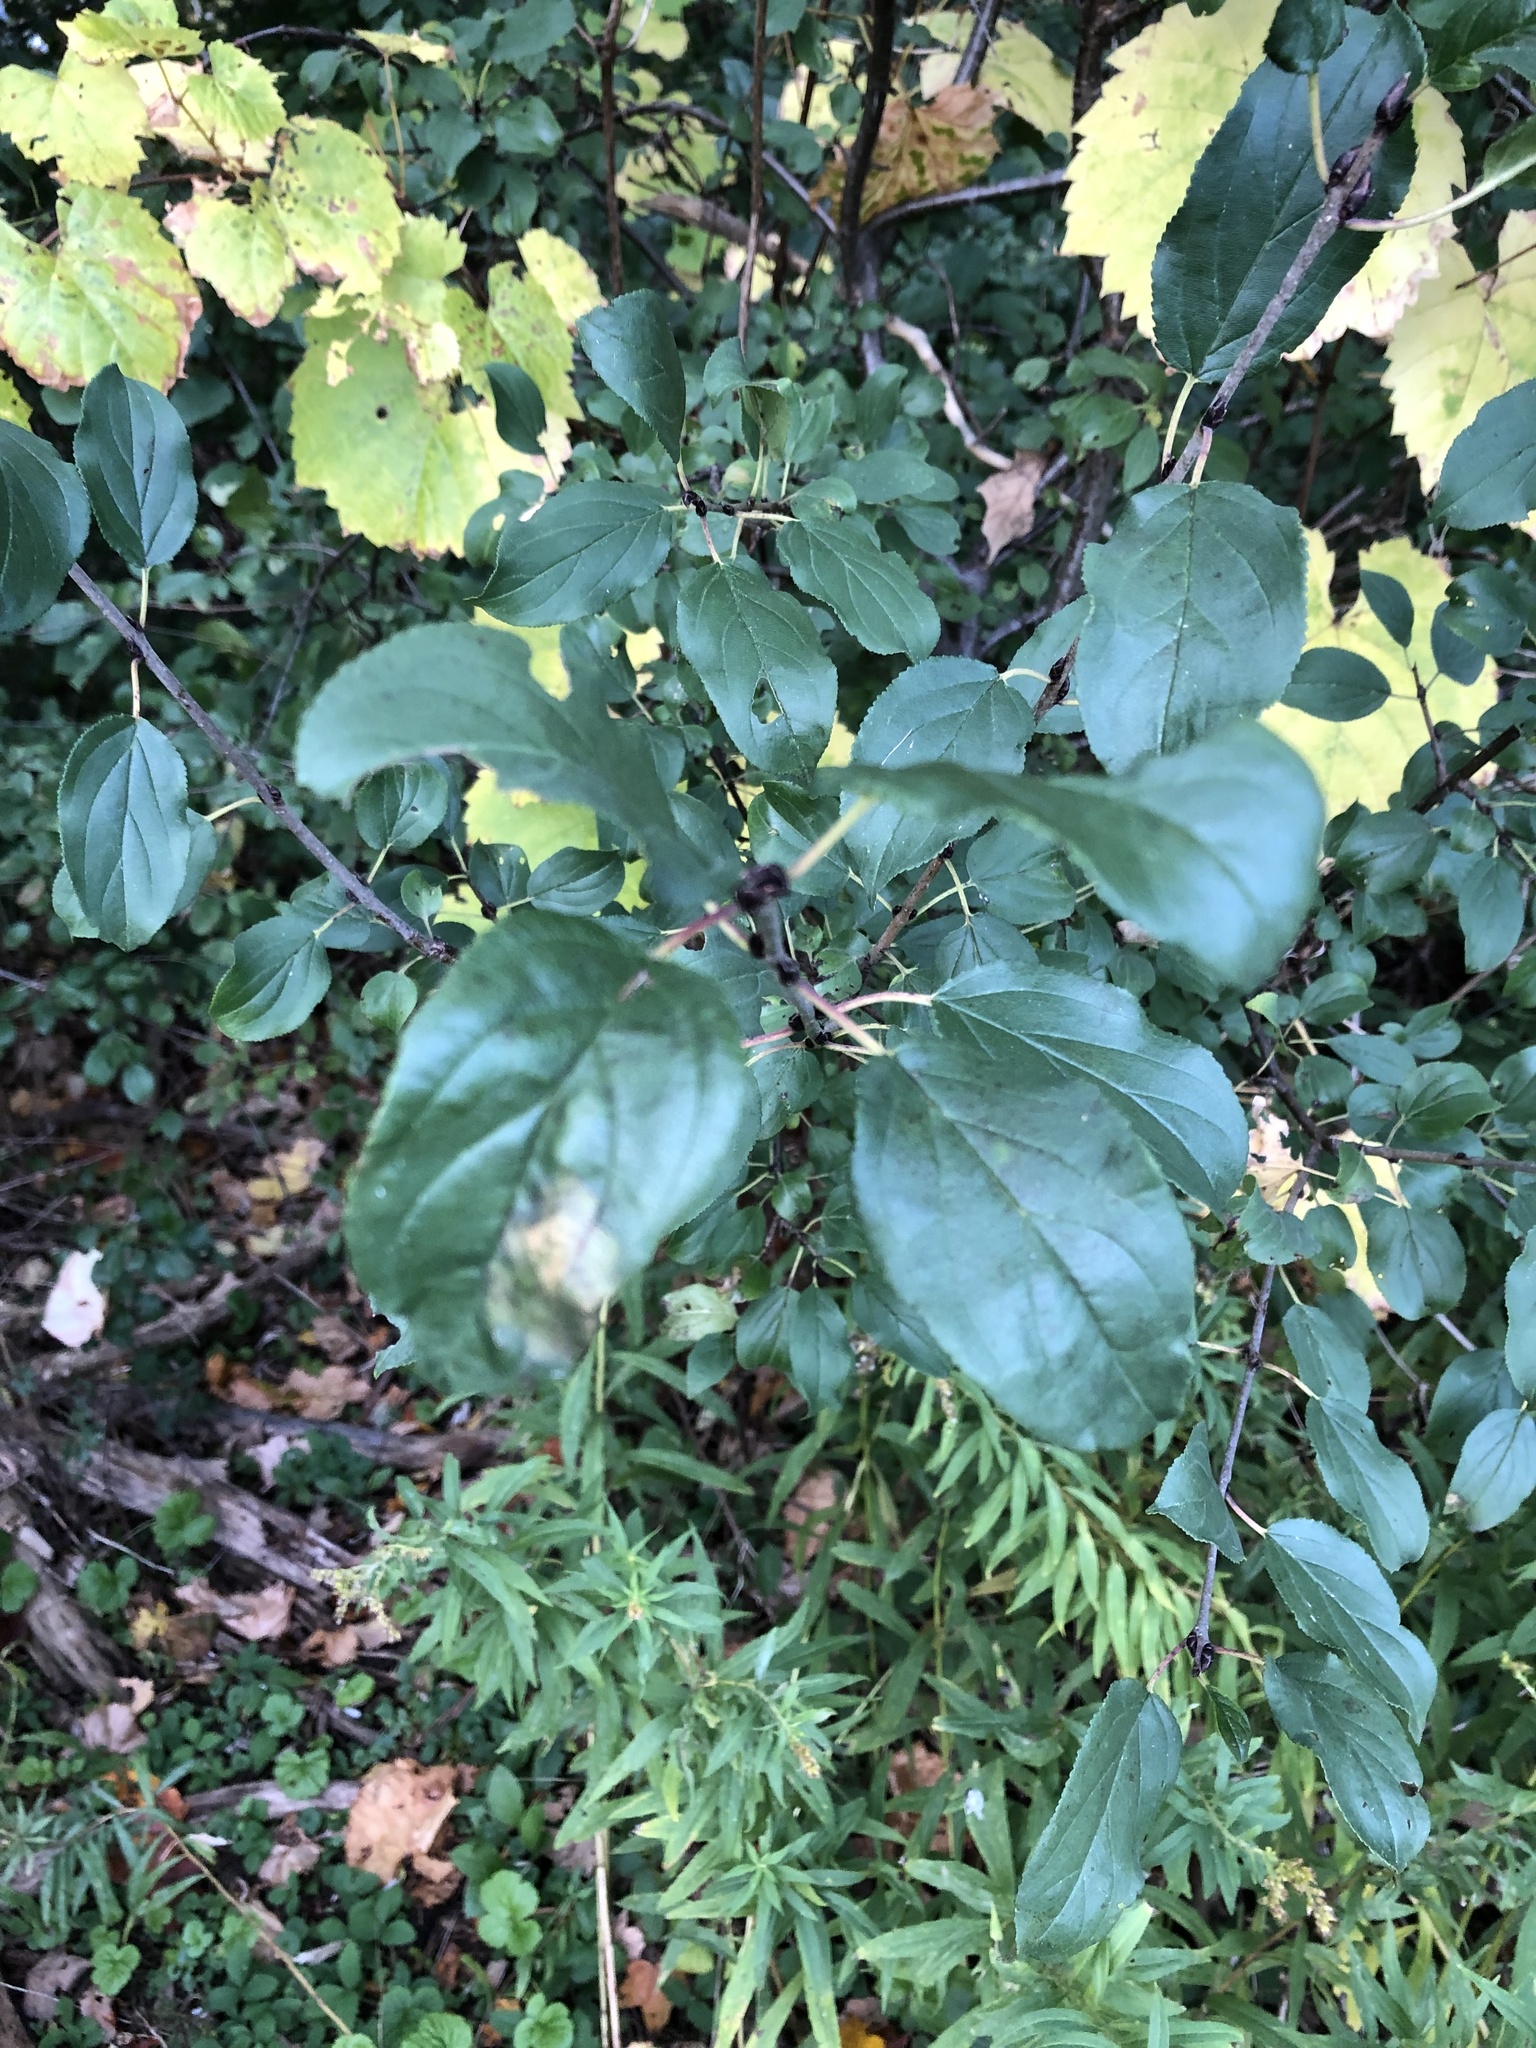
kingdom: Plantae
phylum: Tracheophyta
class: Magnoliopsida
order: Rosales
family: Rhamnaceae
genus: Rhamnus
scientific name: Rhamnus cathartica
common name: Common buckthorn
